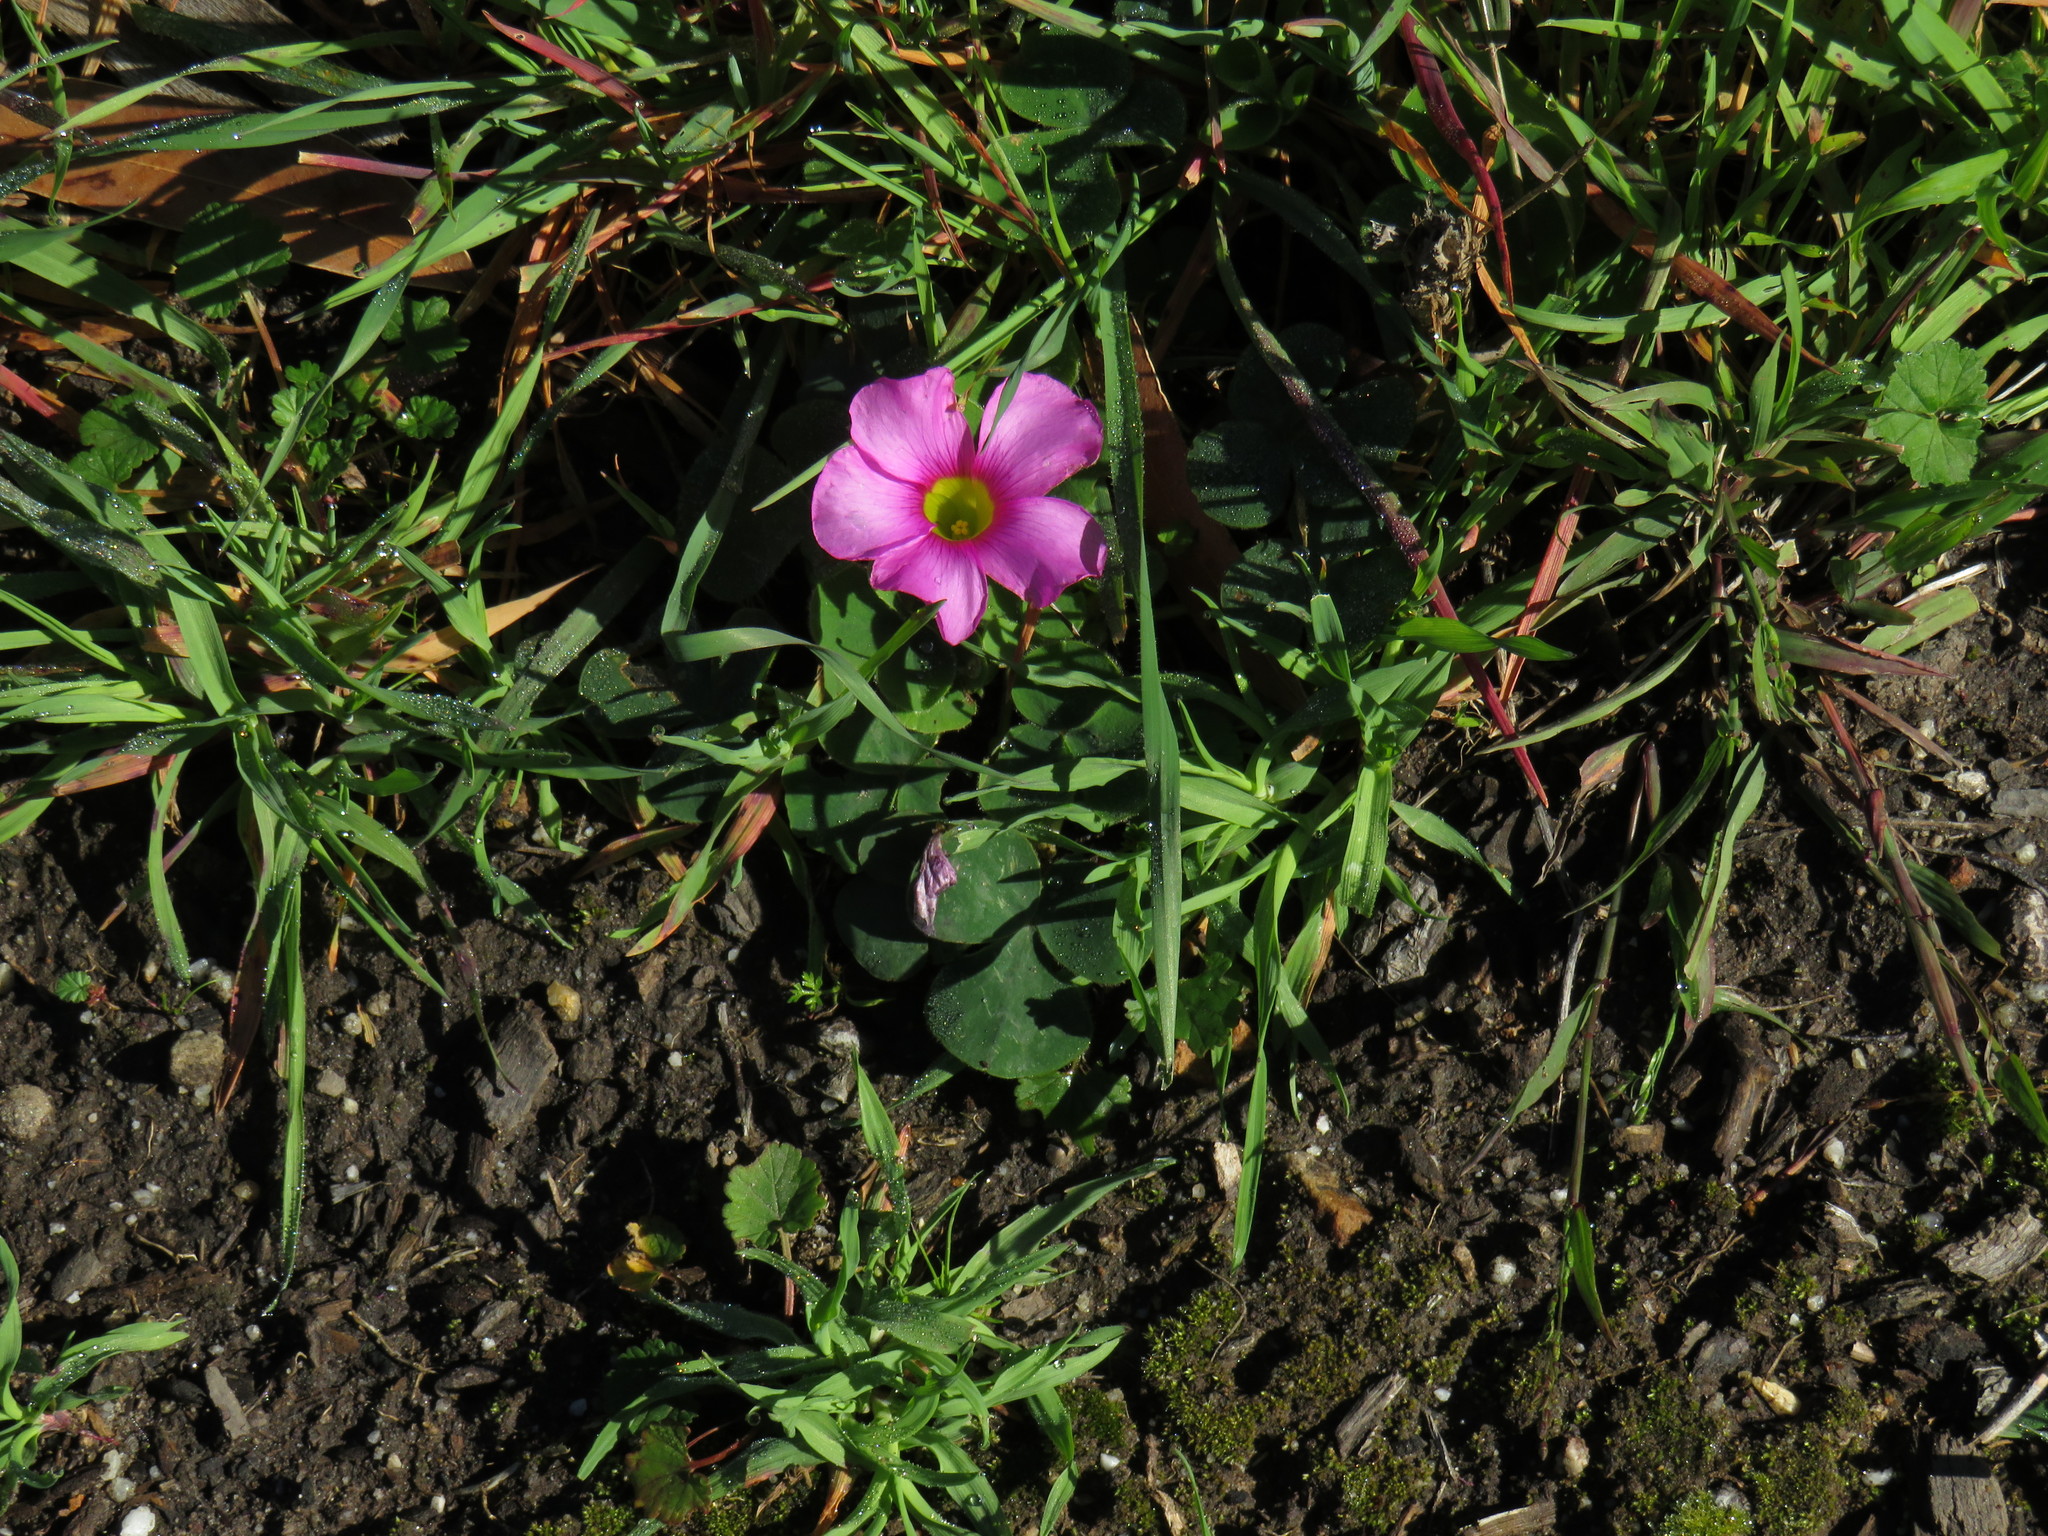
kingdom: Plantae
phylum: Tracheophyta
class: Magnoliopsida
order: Oxalidales
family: Oxalidaceae
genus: Oxalis
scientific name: Oxalis purpurea
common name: Purple woodsorrel
